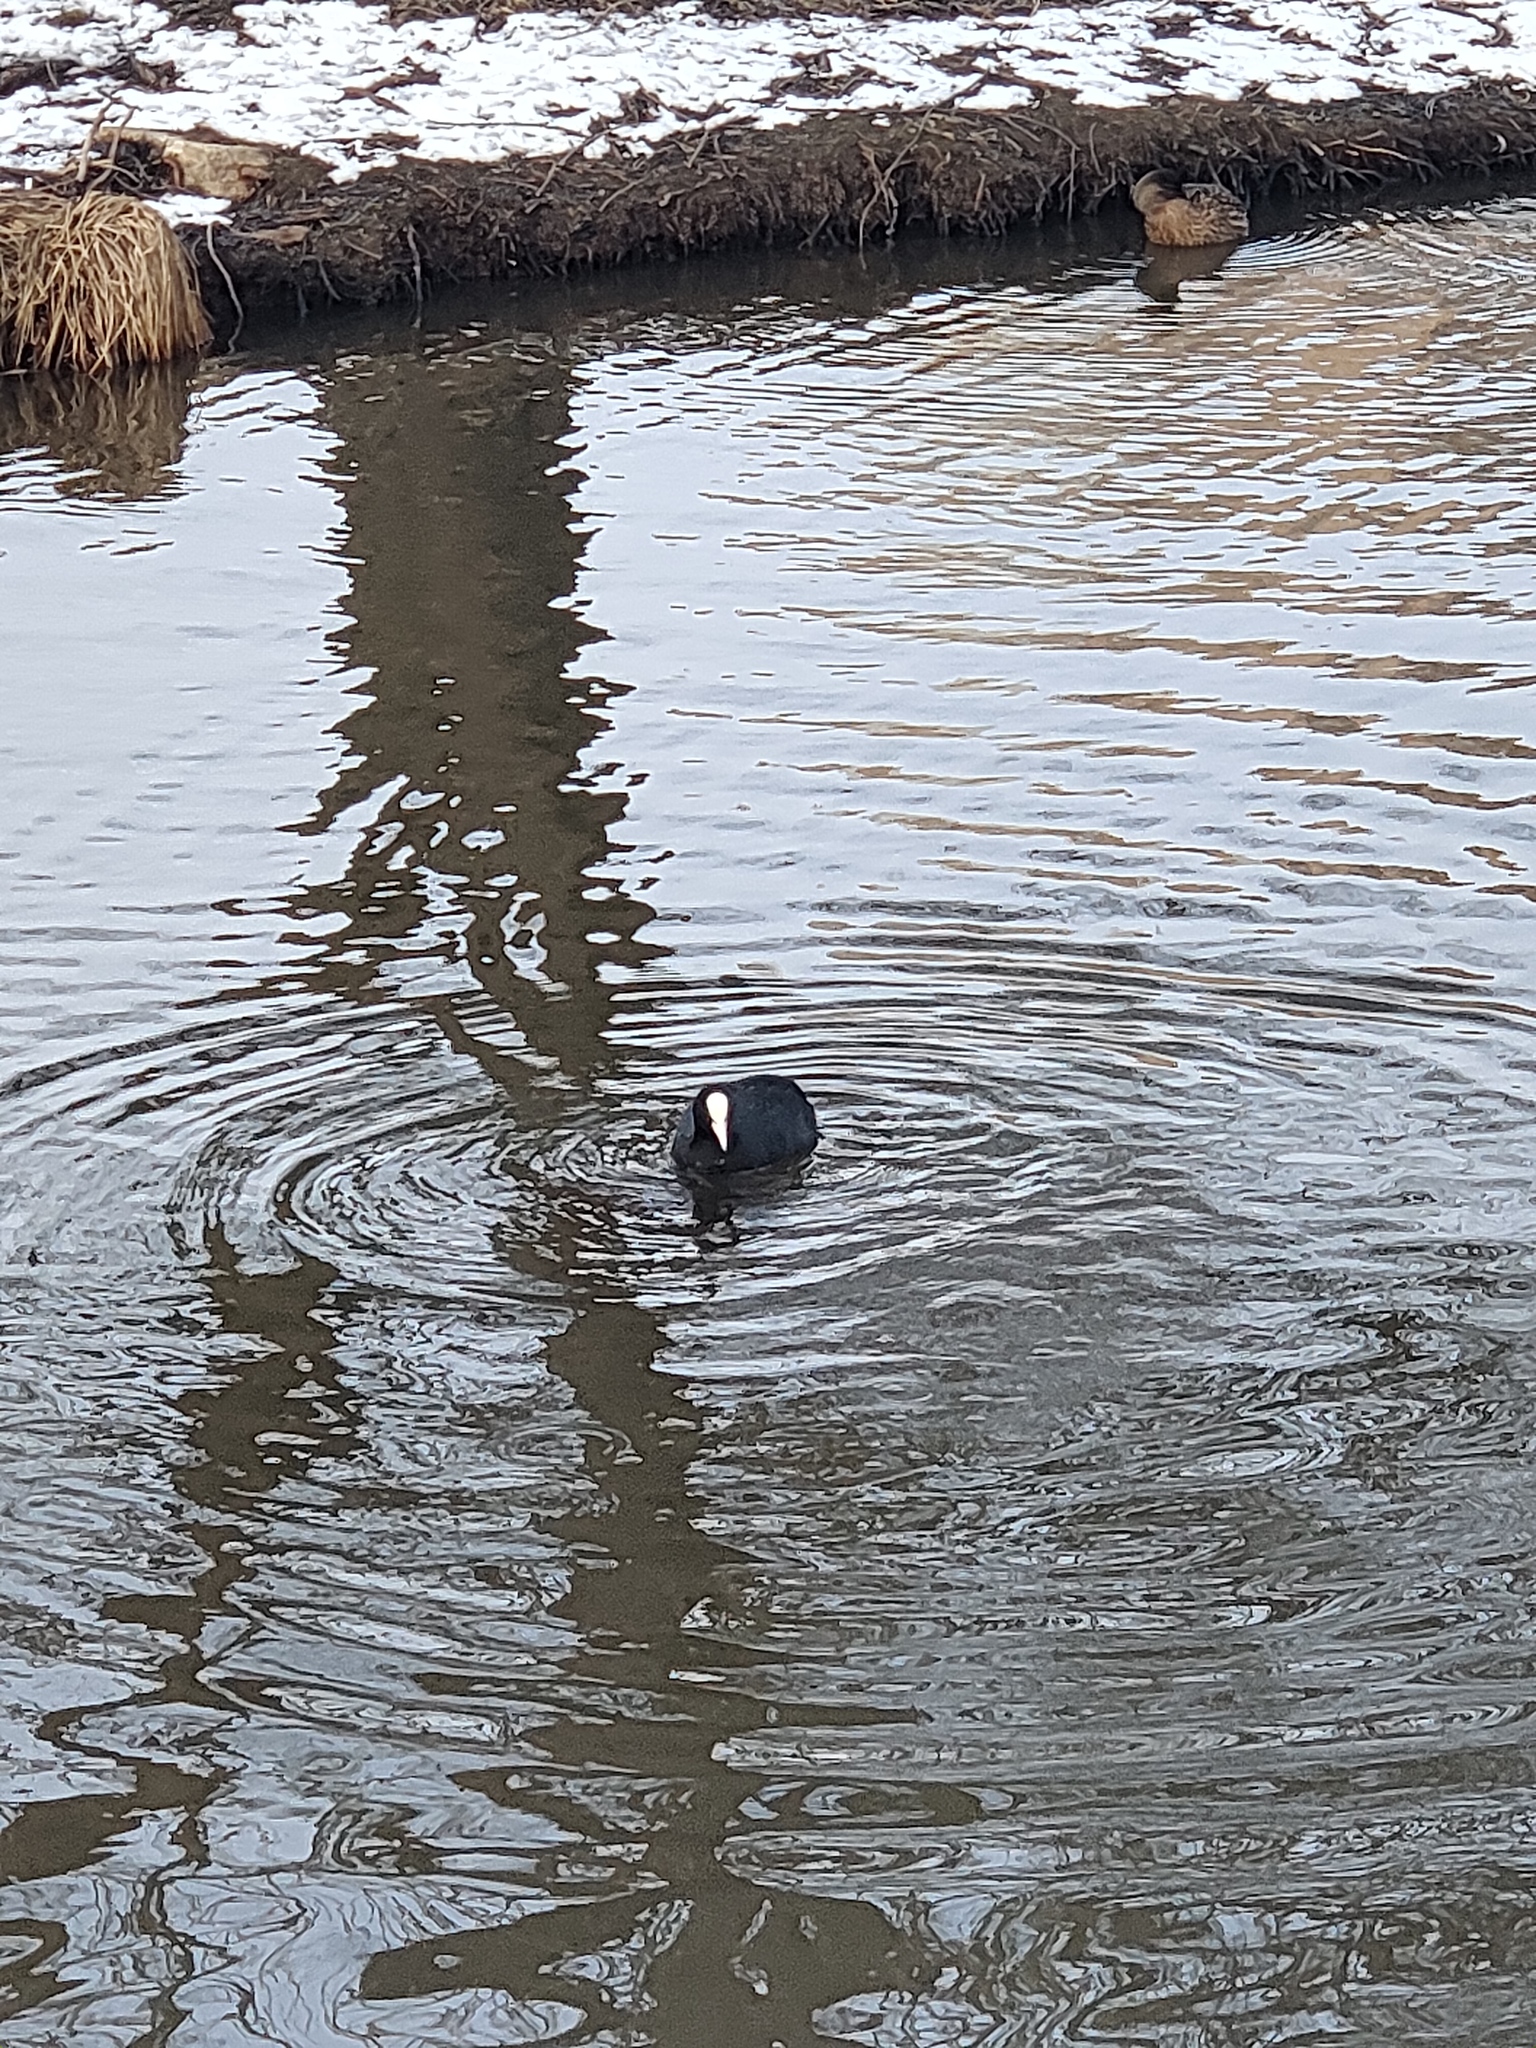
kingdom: Animalia
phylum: Chordata
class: Aves
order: Gruiformes
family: Rallidae
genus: Fulica
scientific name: Fulica atra
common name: Eurasian coot
